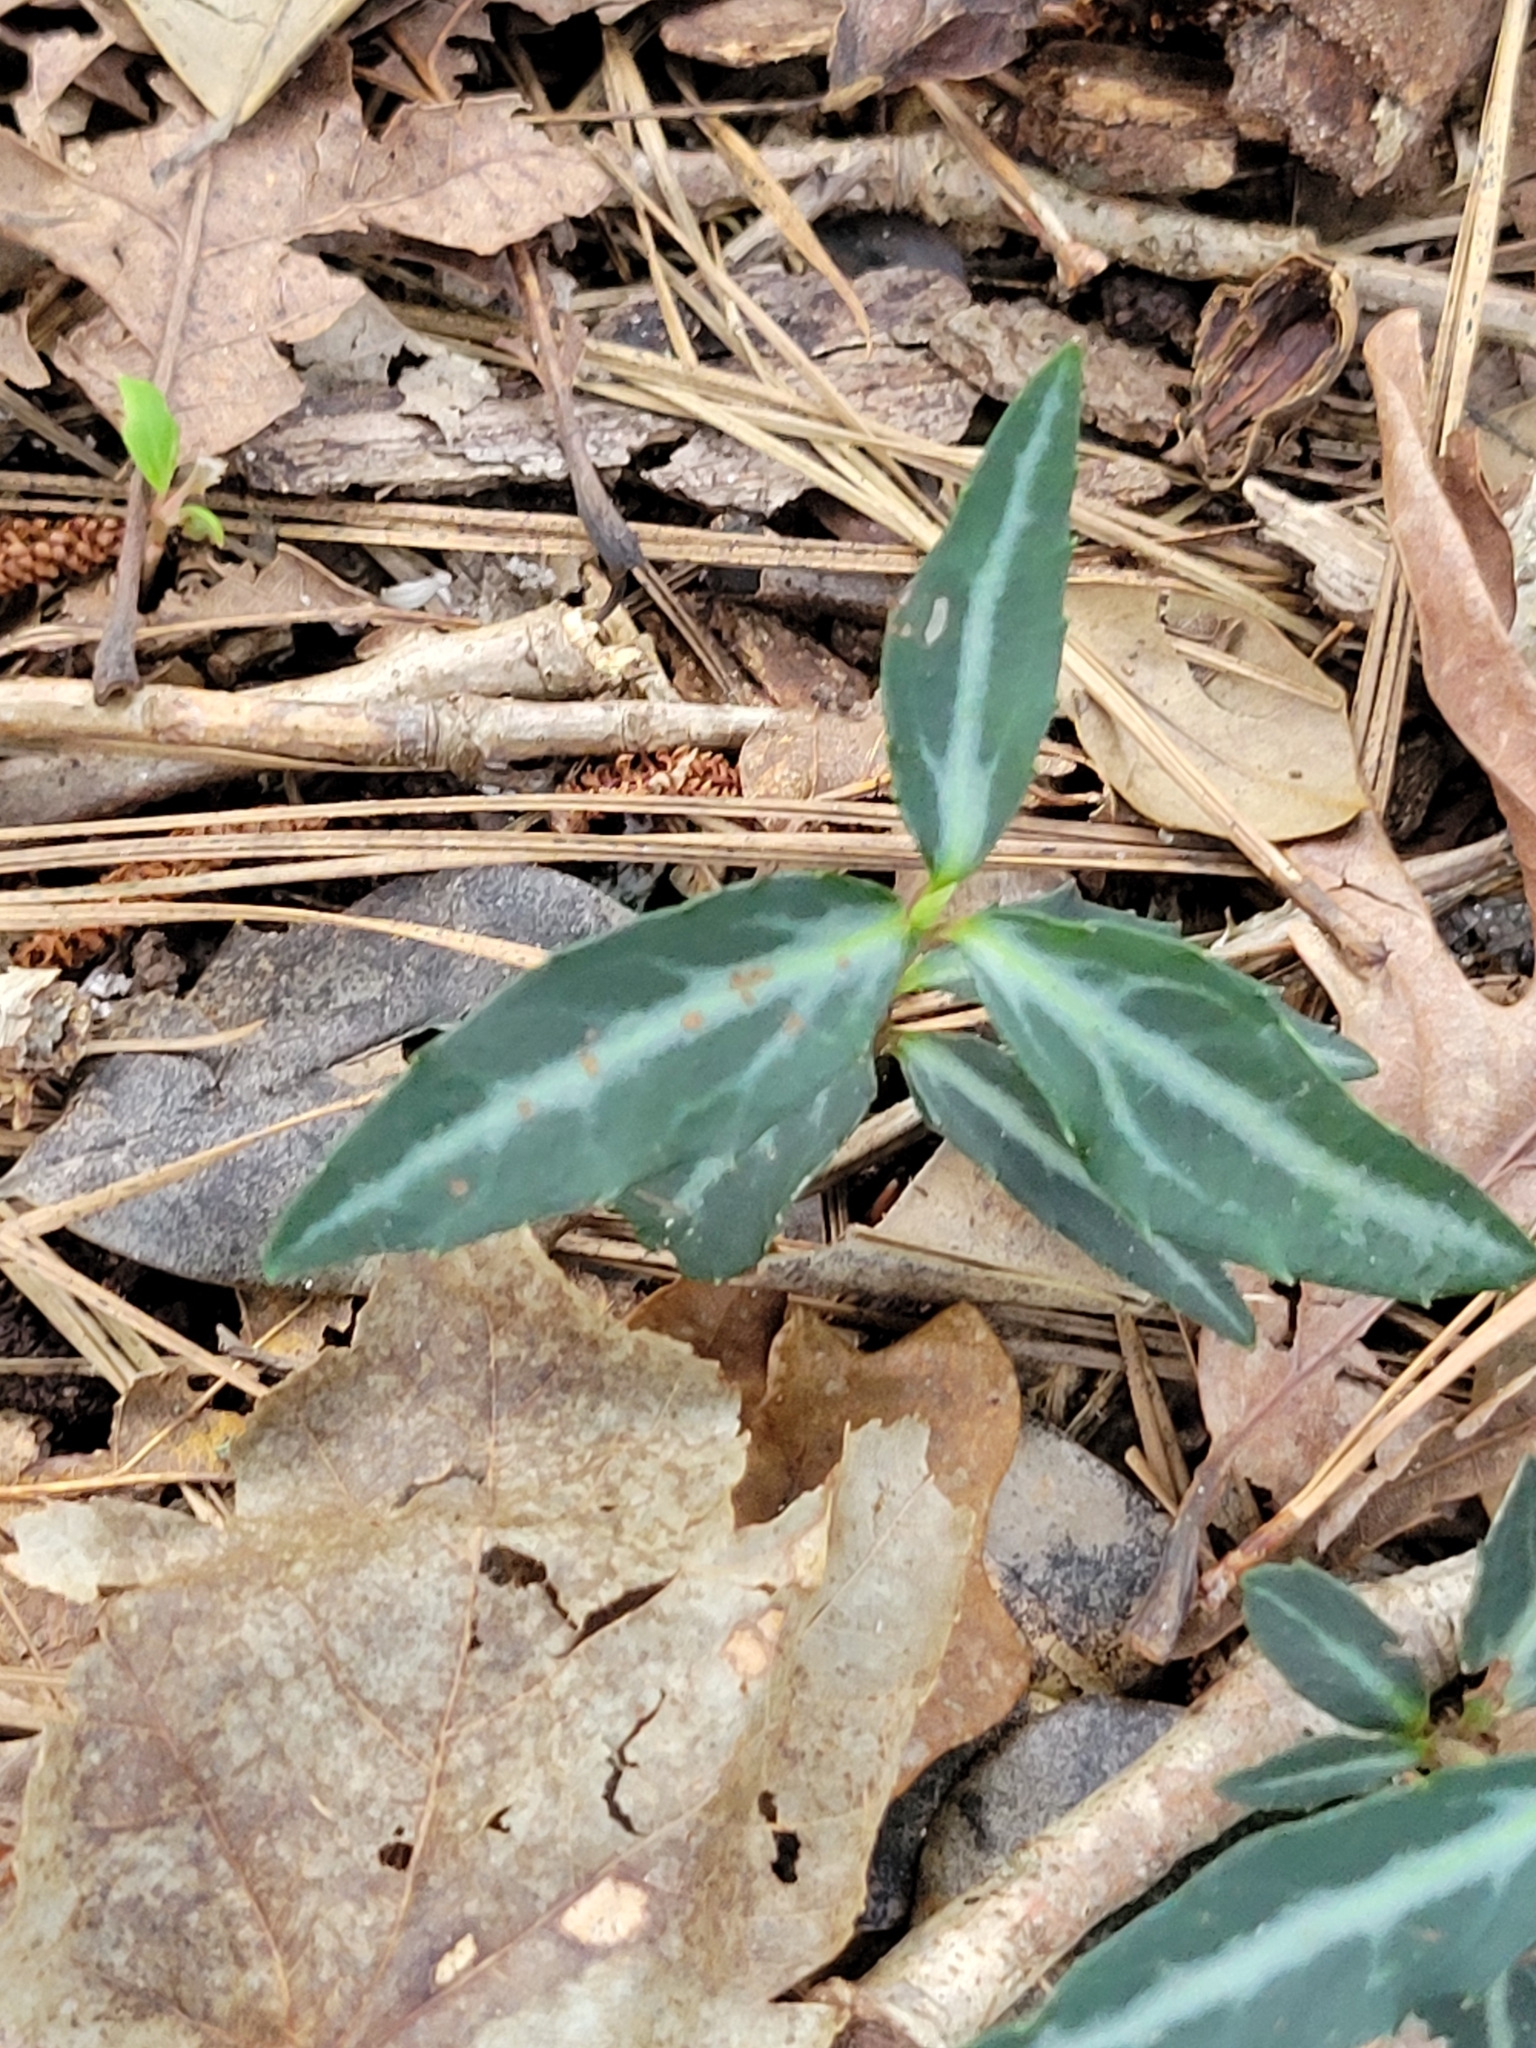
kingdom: Plantae
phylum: Tracheophyta
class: Magnoliopsida
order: Ericales
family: Ericaceae
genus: Chimaphila
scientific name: Chimaphila maculata
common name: Spotted pipsissewa
